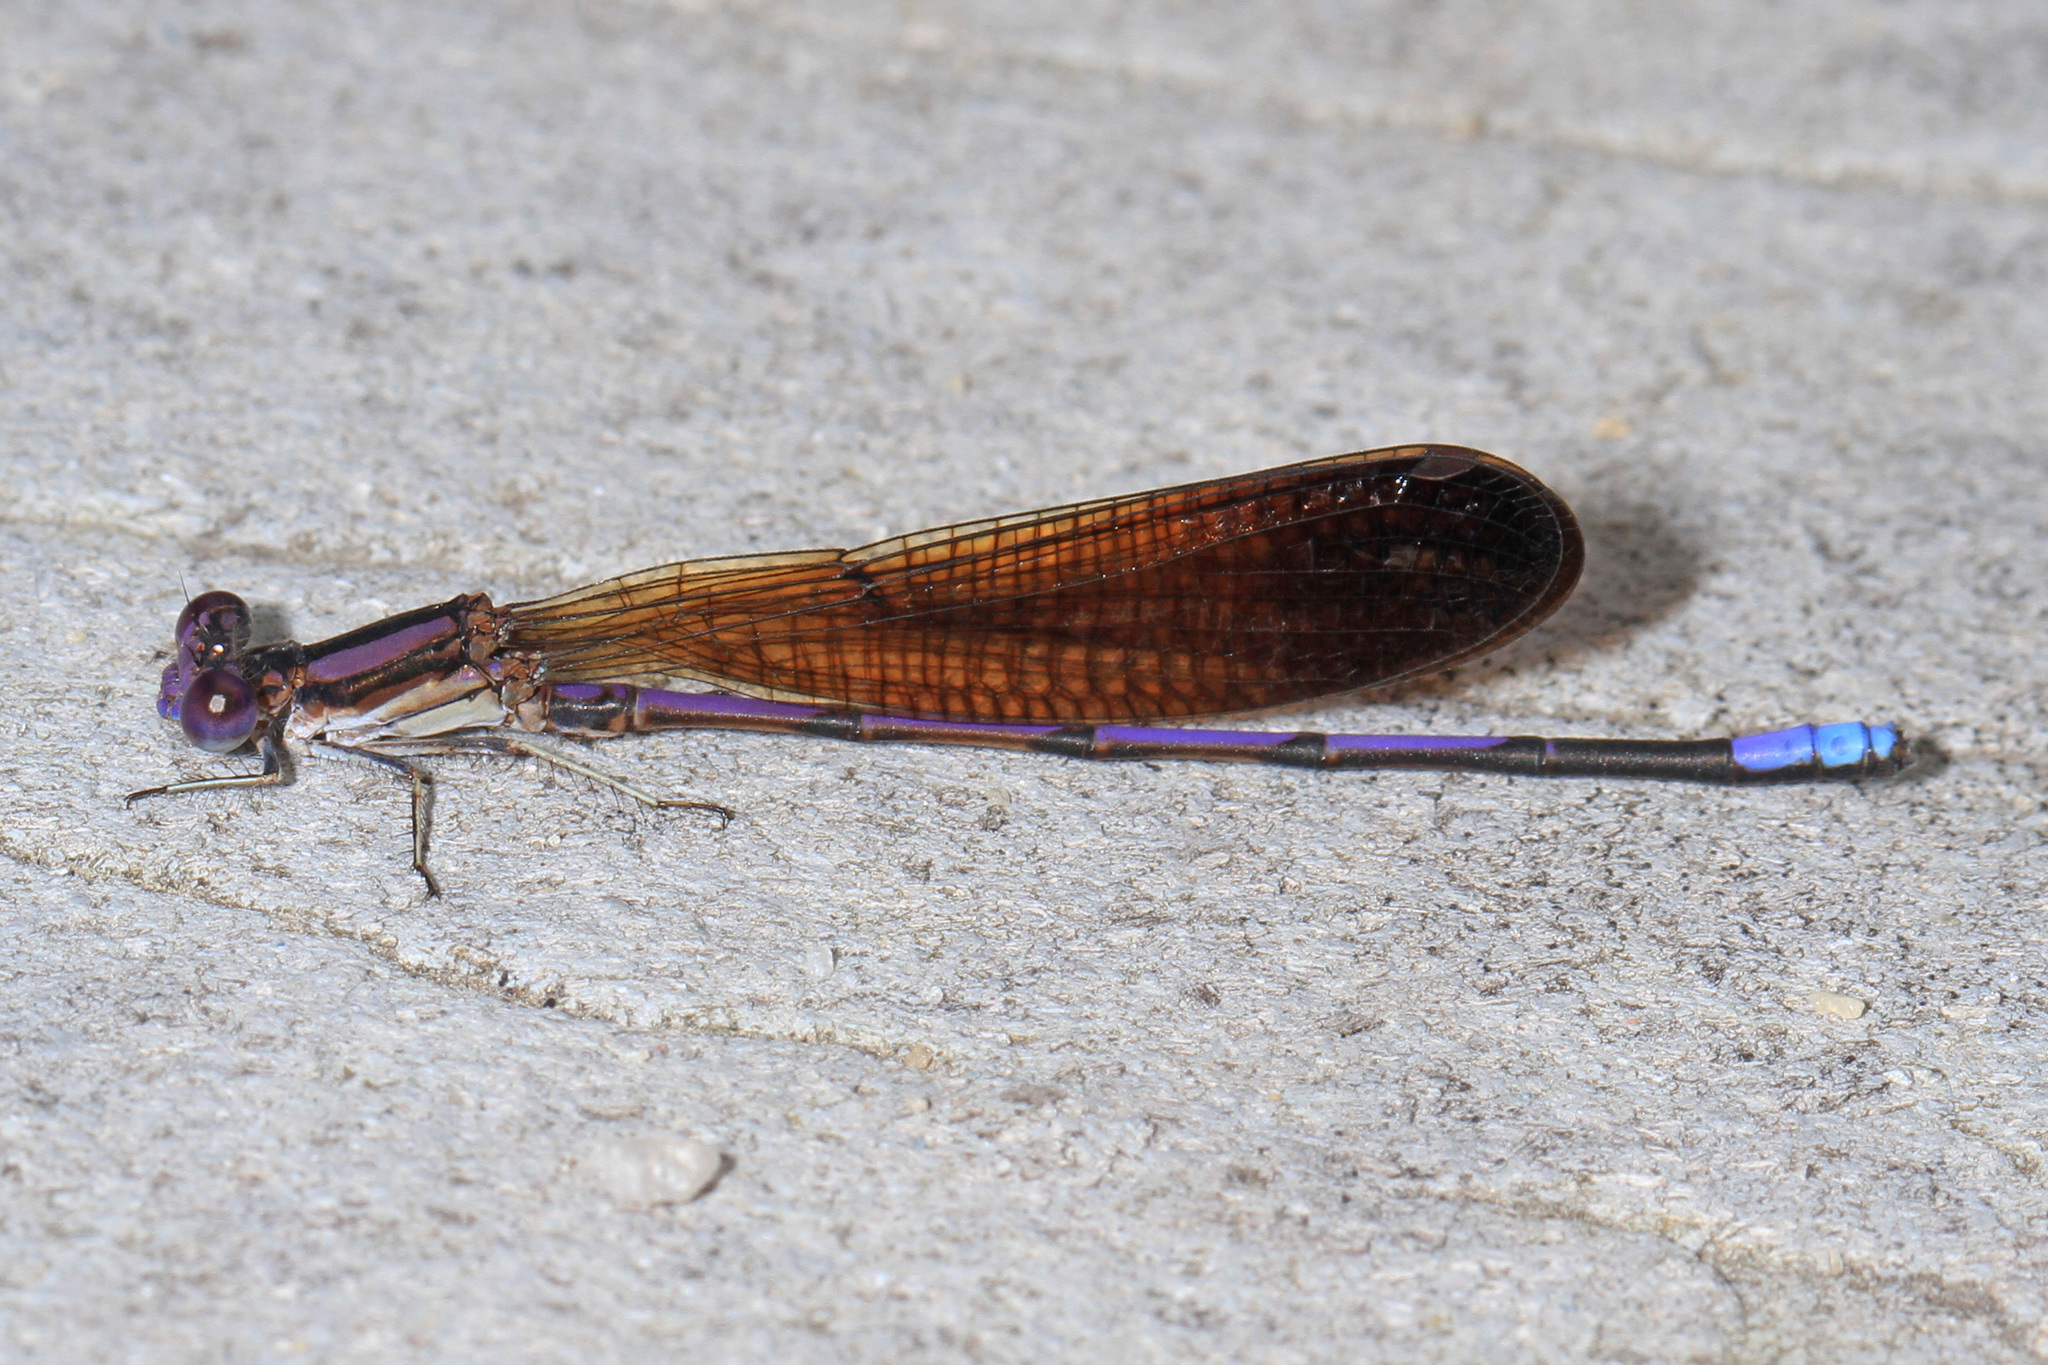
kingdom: Animalia
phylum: Arthropoda
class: Insecta
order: Odonata
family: Coenagrionidae
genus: Argia
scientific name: Argia fumipennis
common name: Variable dancer
